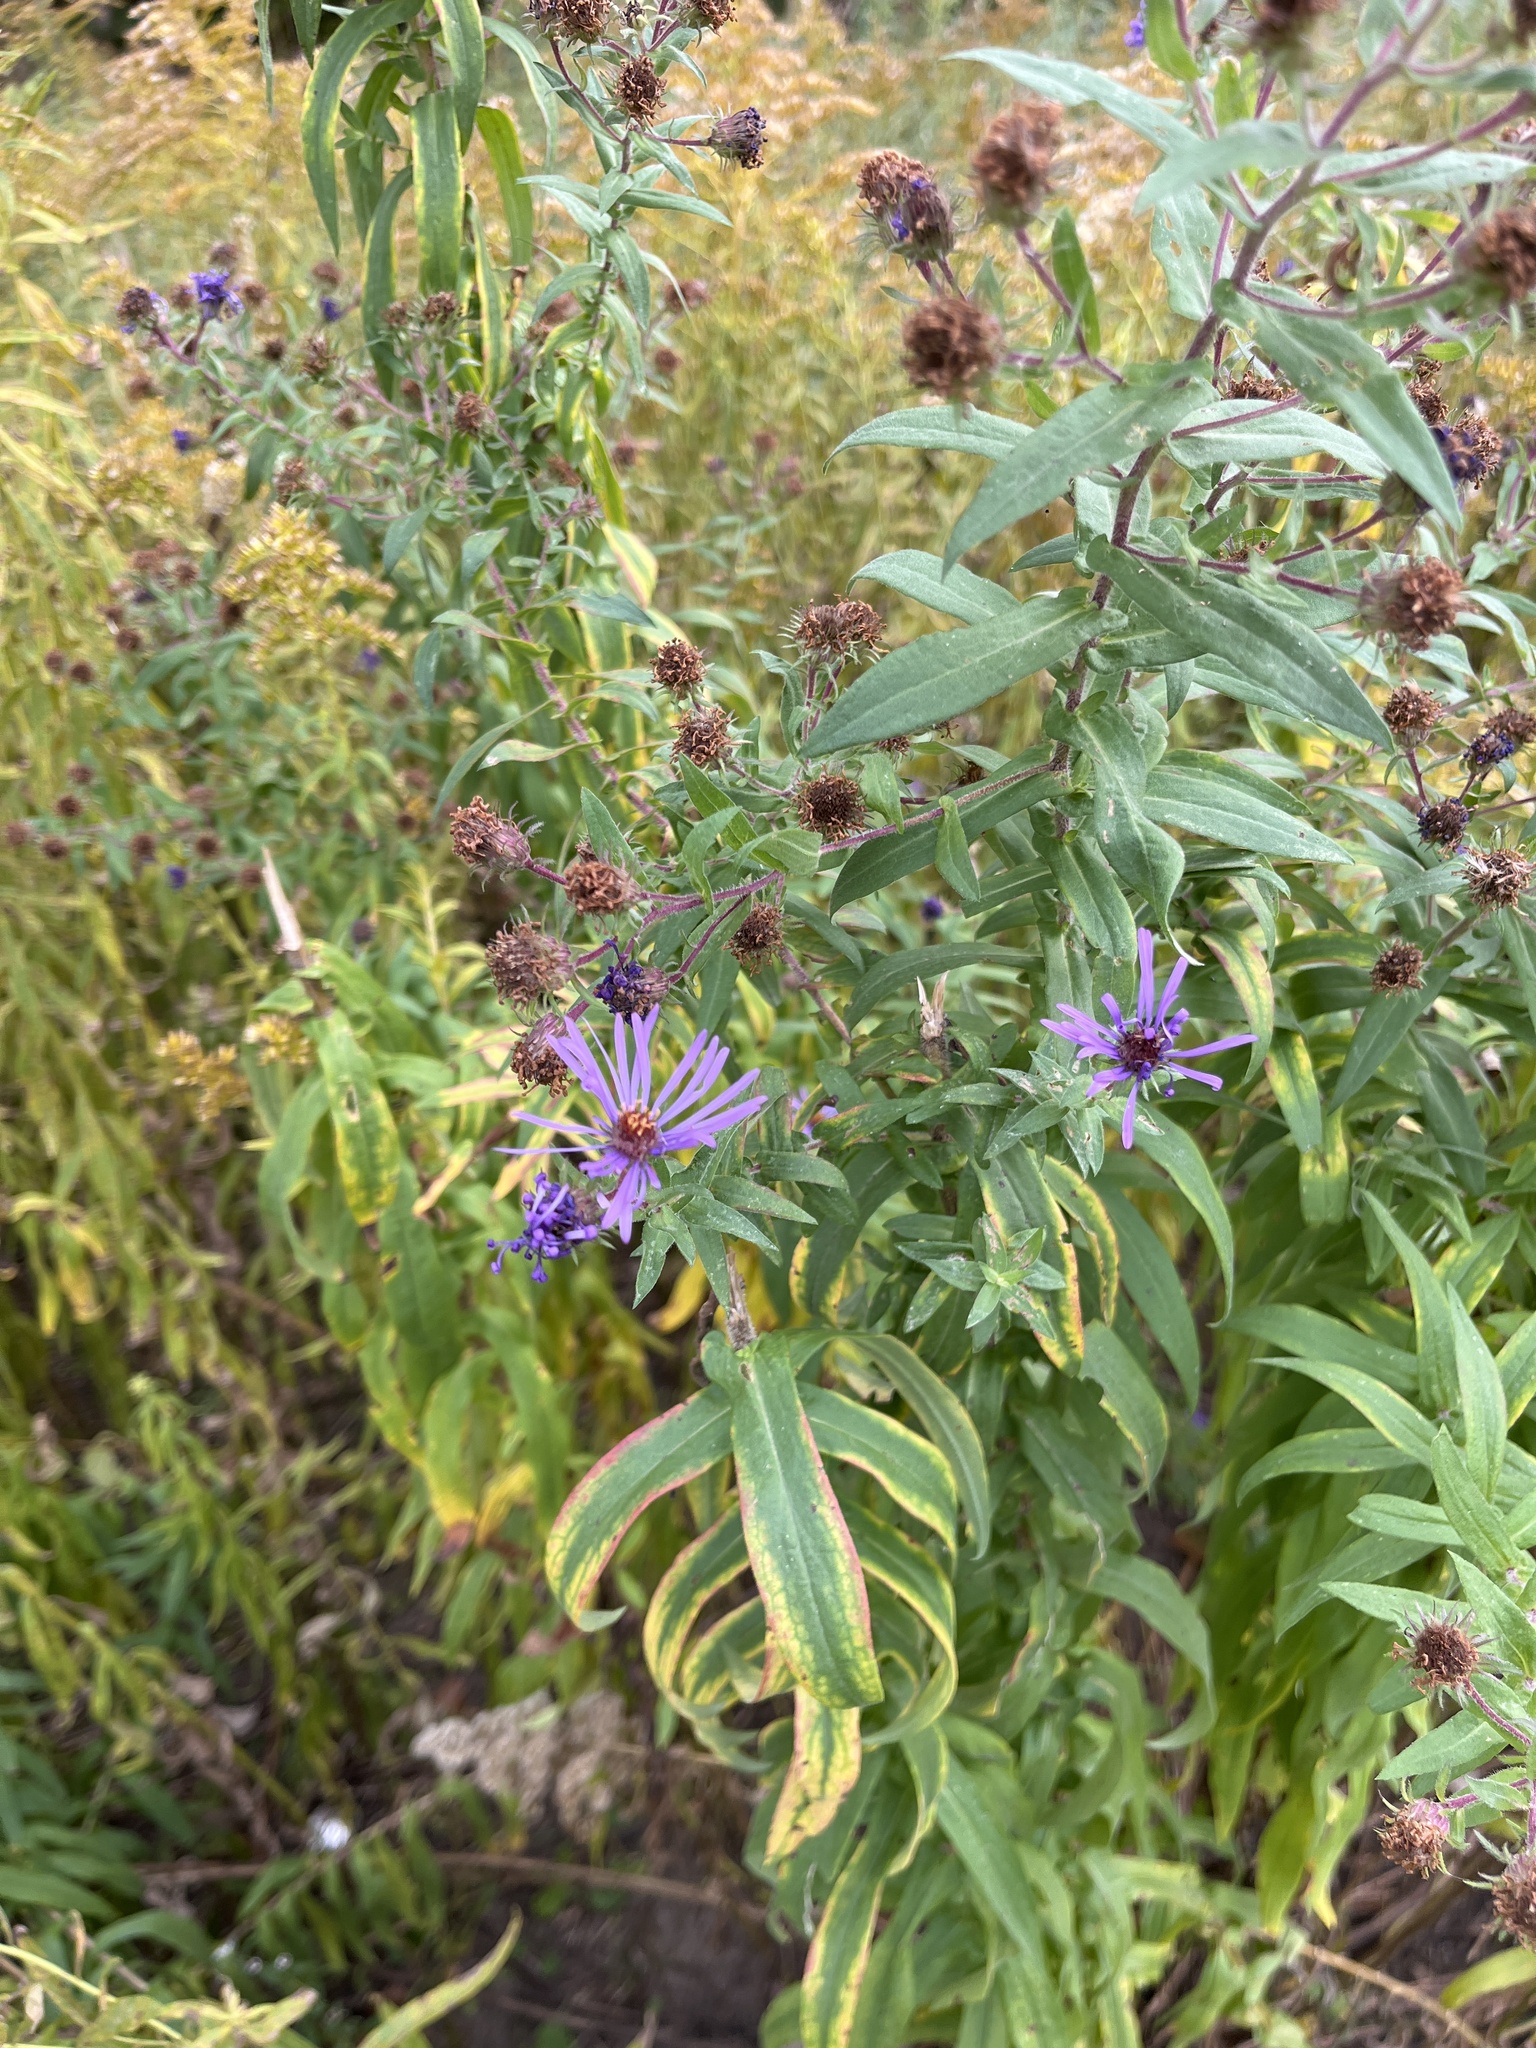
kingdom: Plantae
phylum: Tracheophyta
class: Magnoliopsida
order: Asterales
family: Asteraceae
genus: Symphyotrichum
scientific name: Symphyotrichum novae-angliae
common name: Michaelmas daisy
